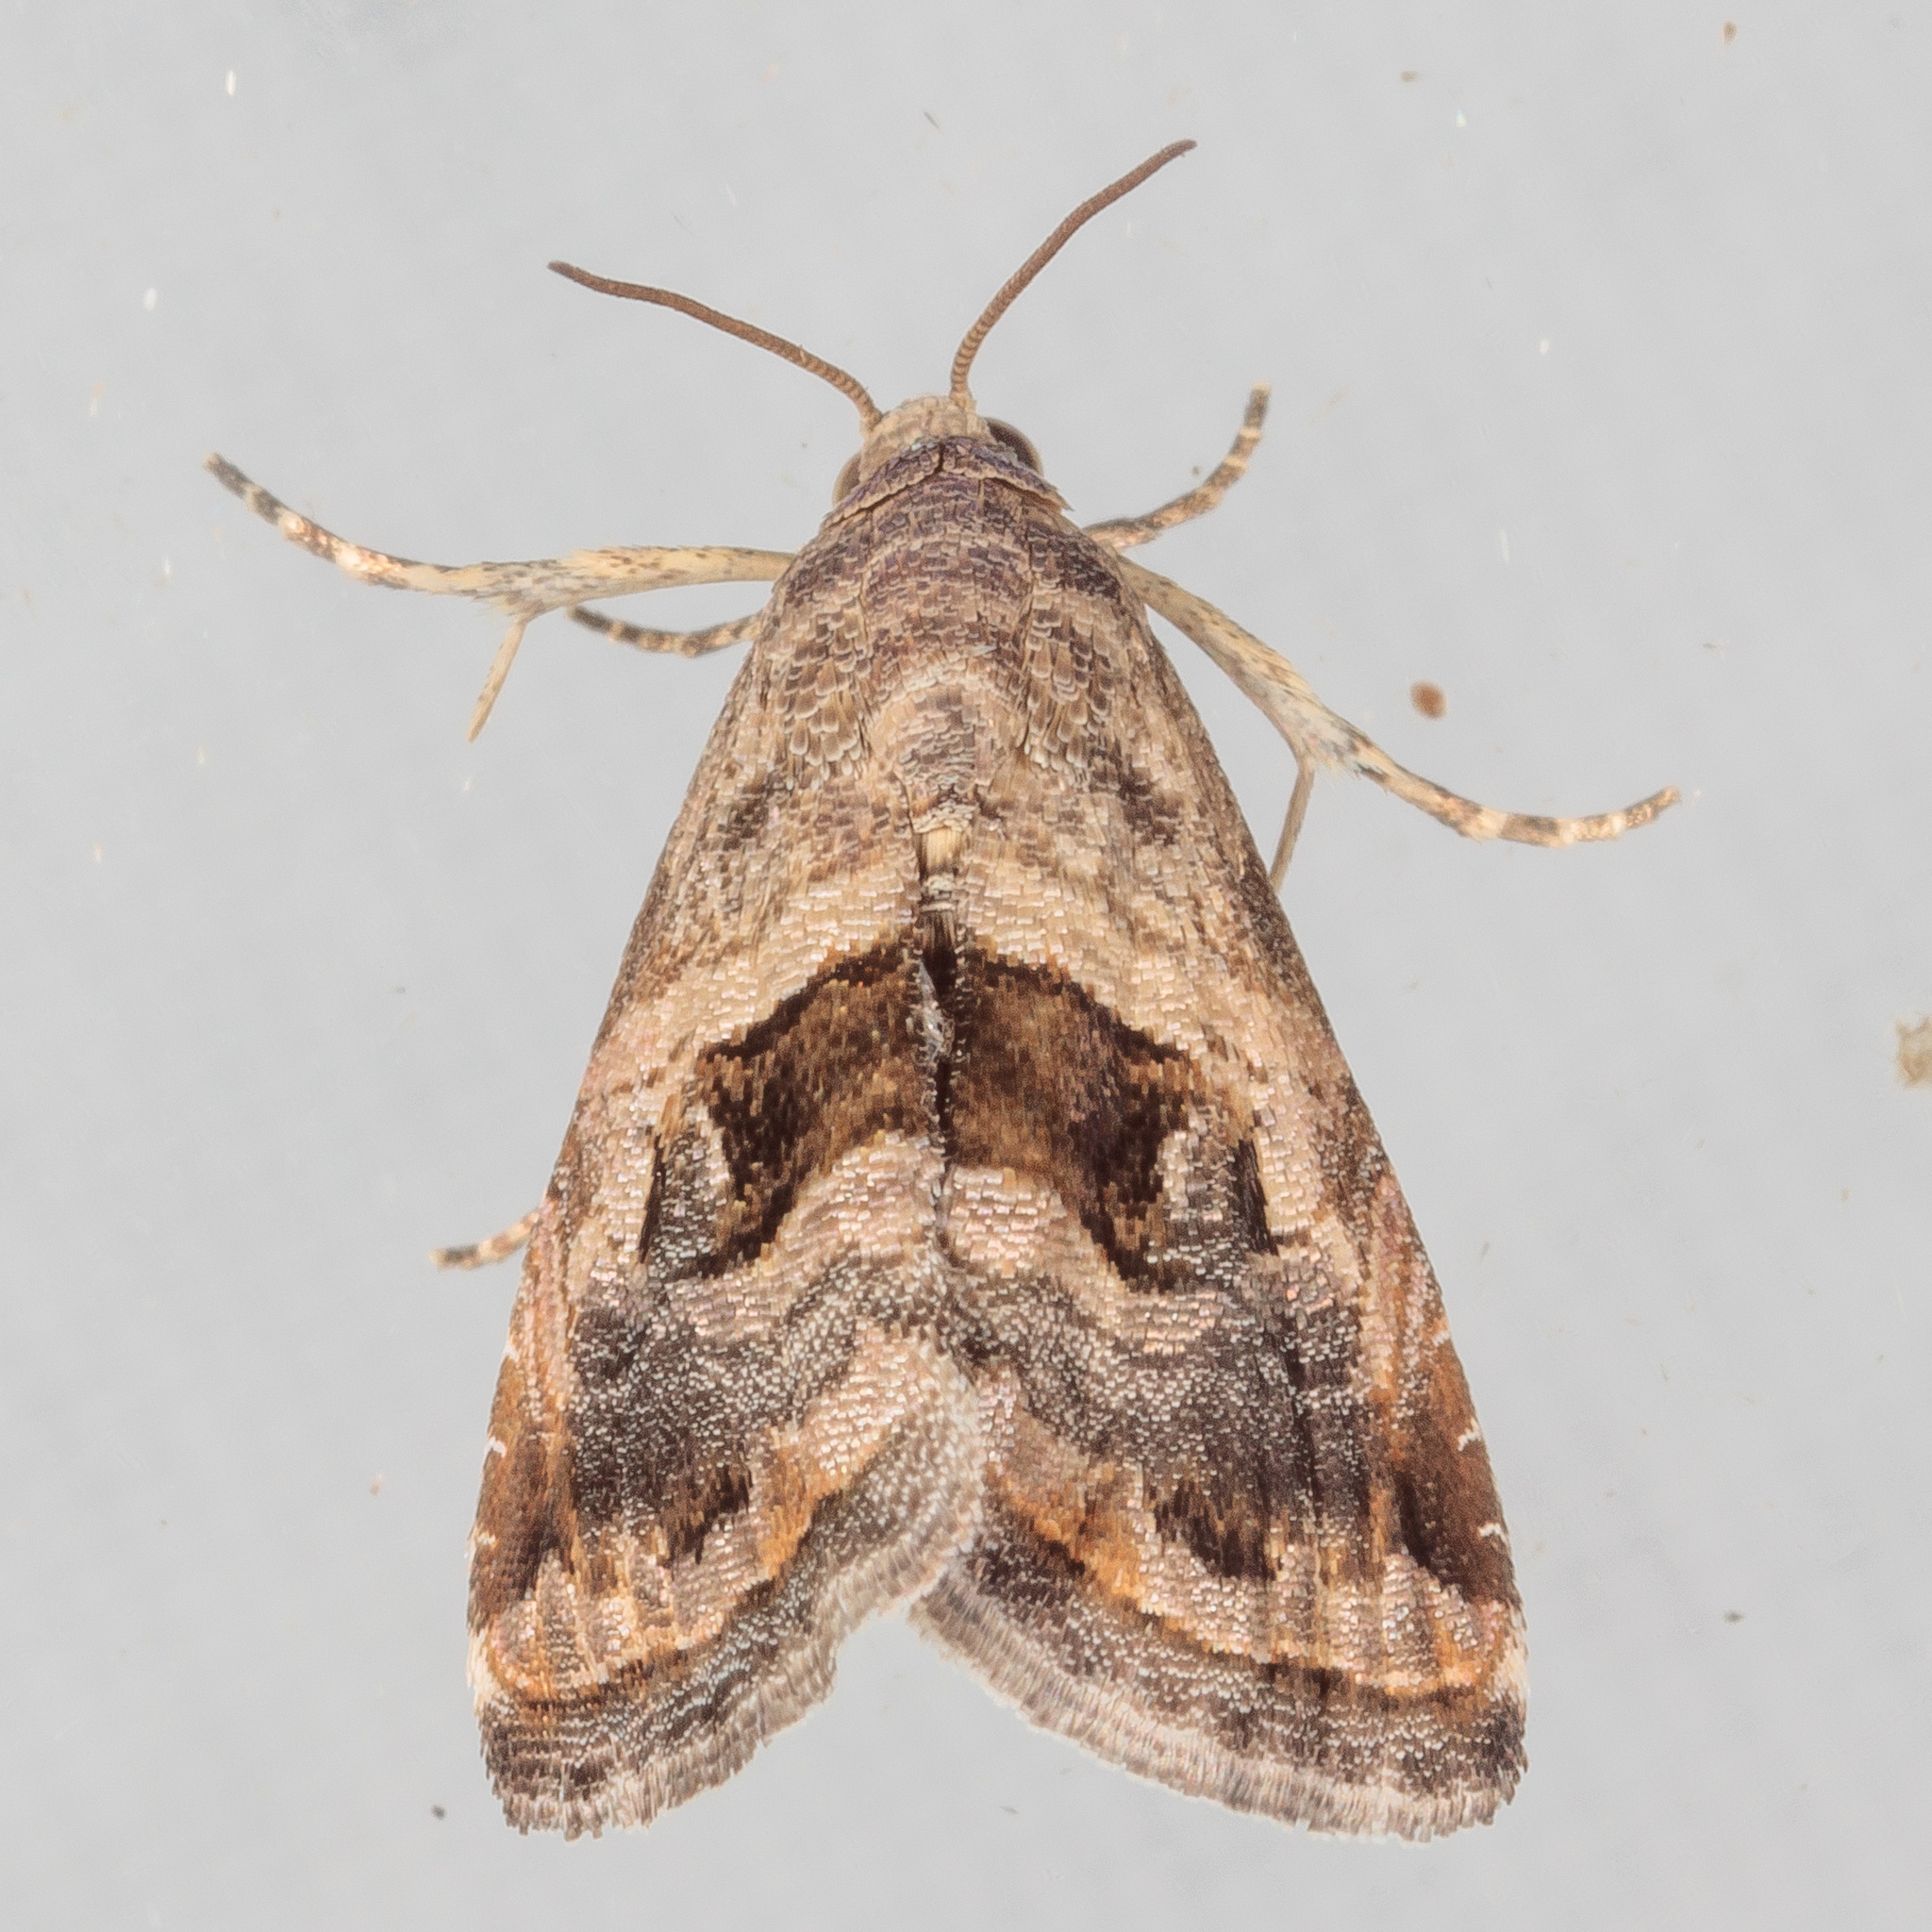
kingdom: Animalia
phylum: Arthropoda
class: Insecta
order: Lepidoptera
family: Noctuidae
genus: Tripudia
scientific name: Tripudia quadrifera
